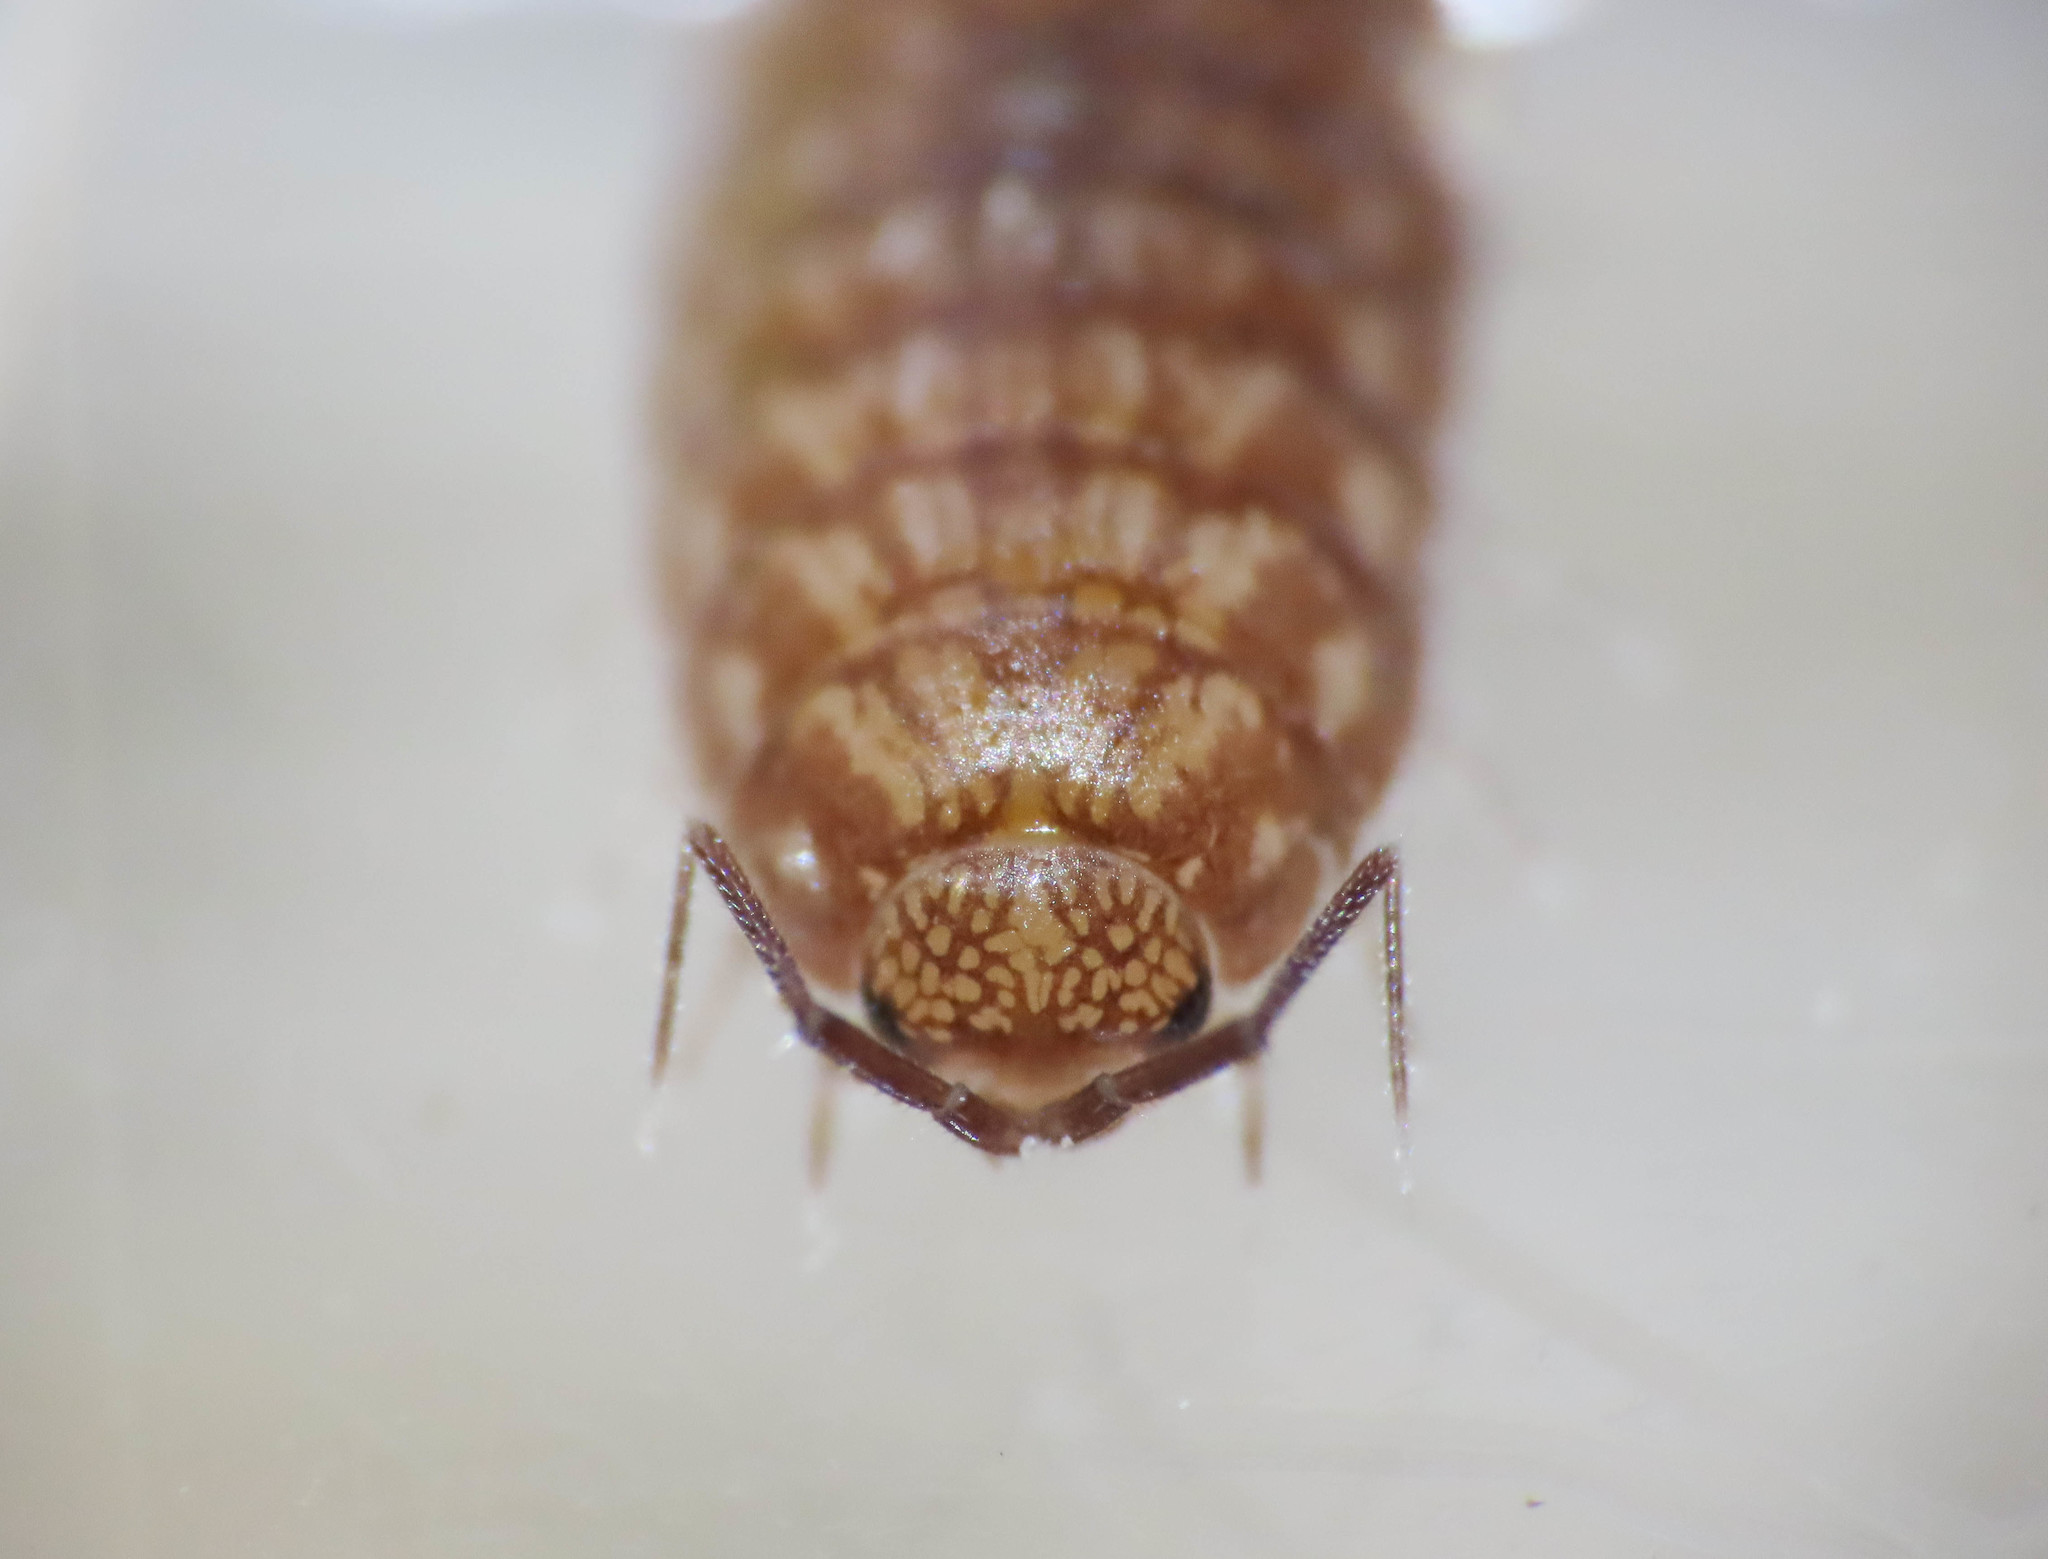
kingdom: Animalia
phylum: Arthropoda
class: Malacostraca
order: Isopoda
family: Philosciidae
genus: Chaetophiloscia
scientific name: Chaetophiloscia cellaria
